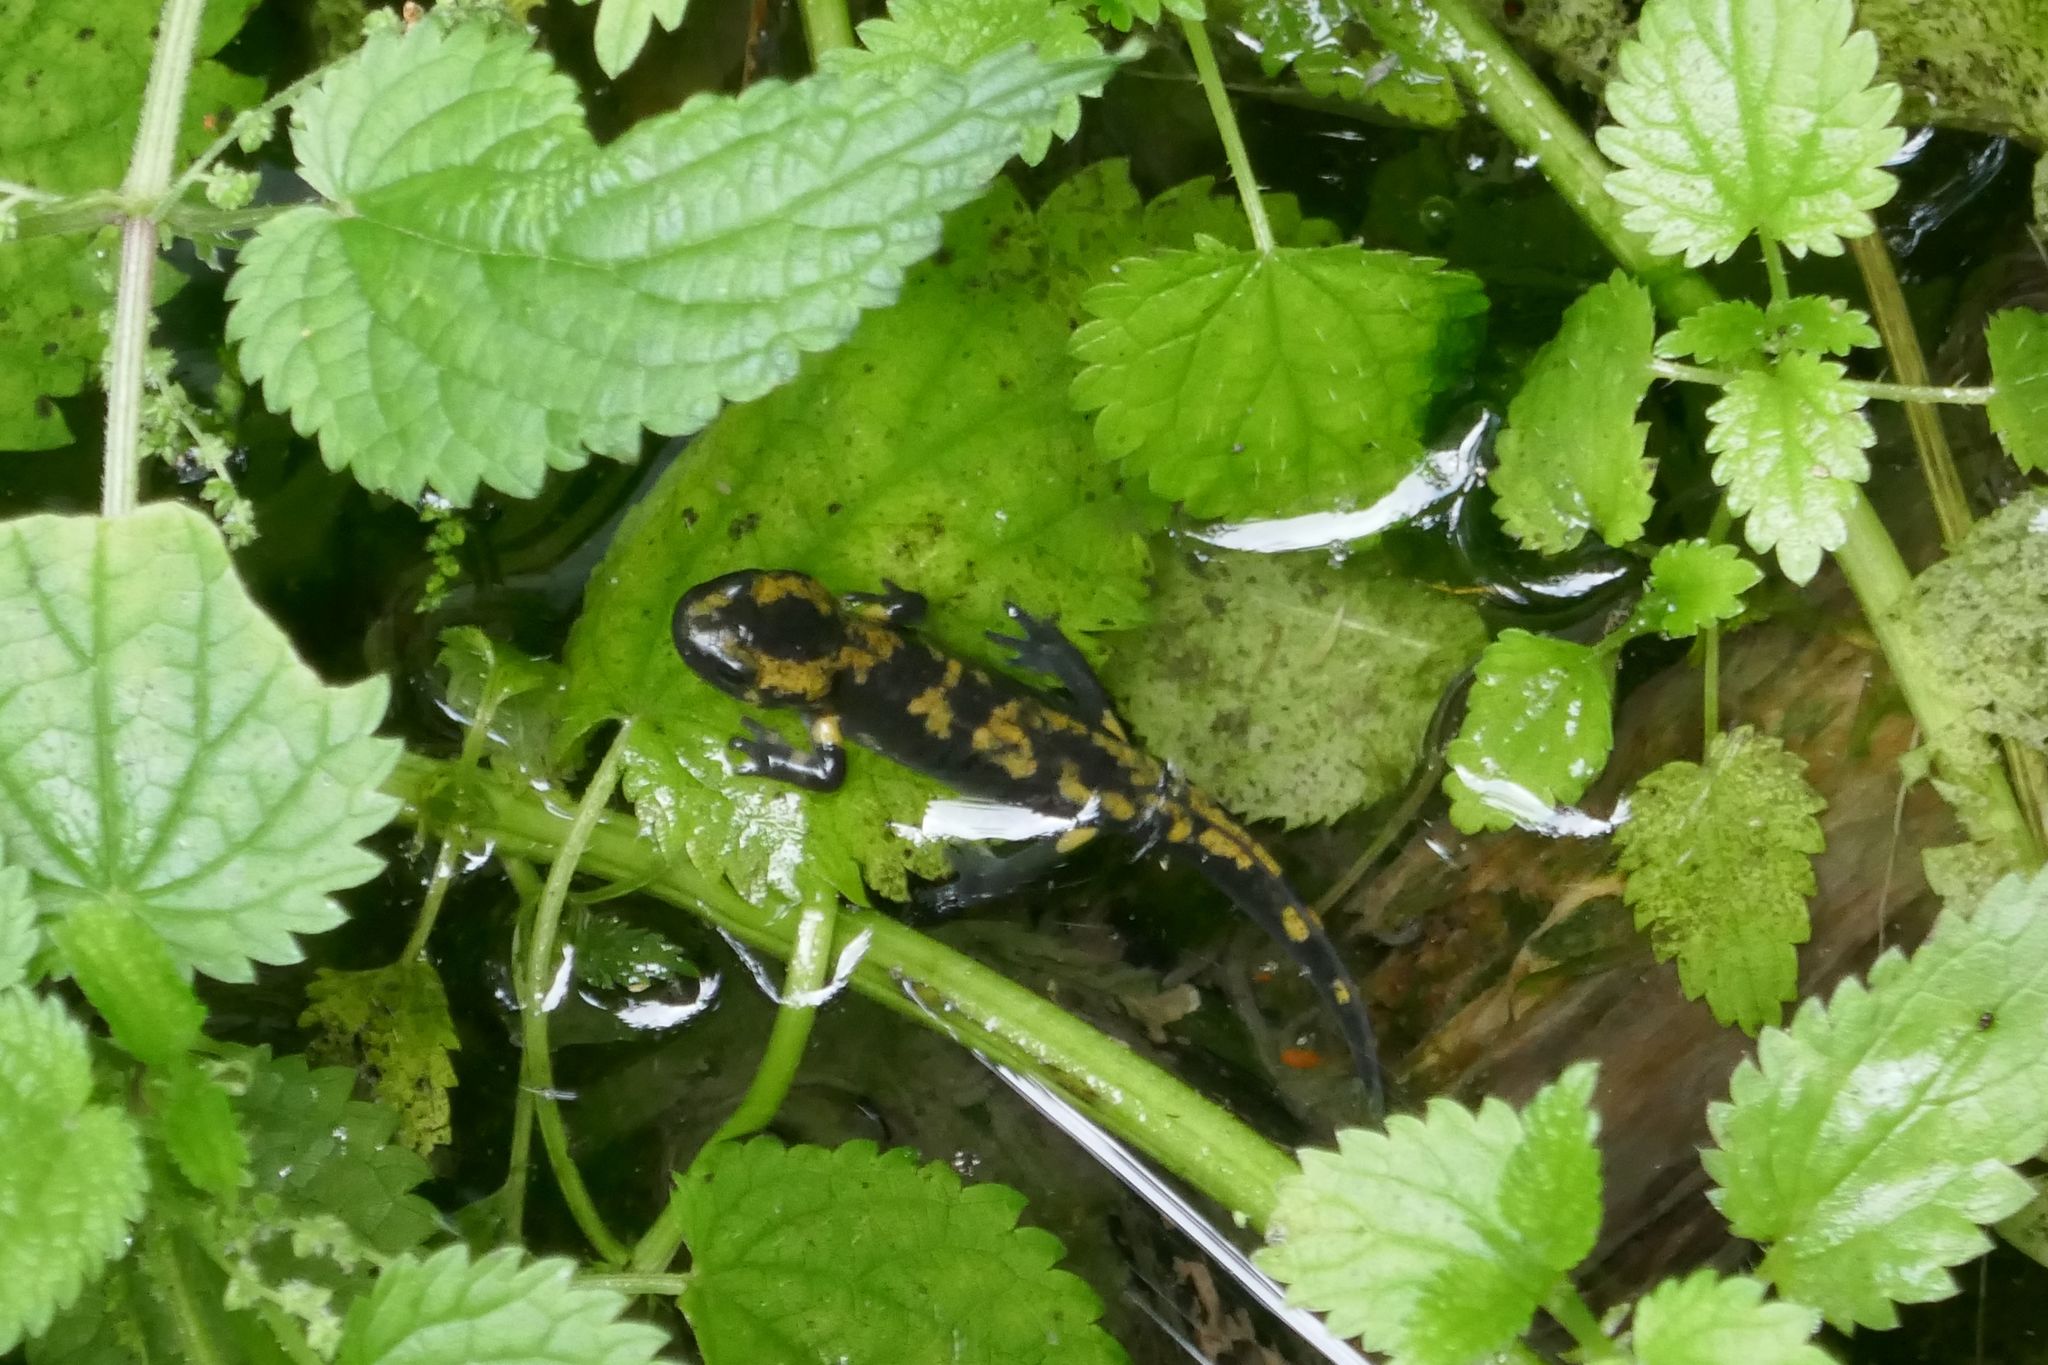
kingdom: Animalia
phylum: Chordata
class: Amphibia
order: Caudata
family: Salamandridae
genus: Salamandra
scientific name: Salamandra salamandra
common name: Fire salamander
